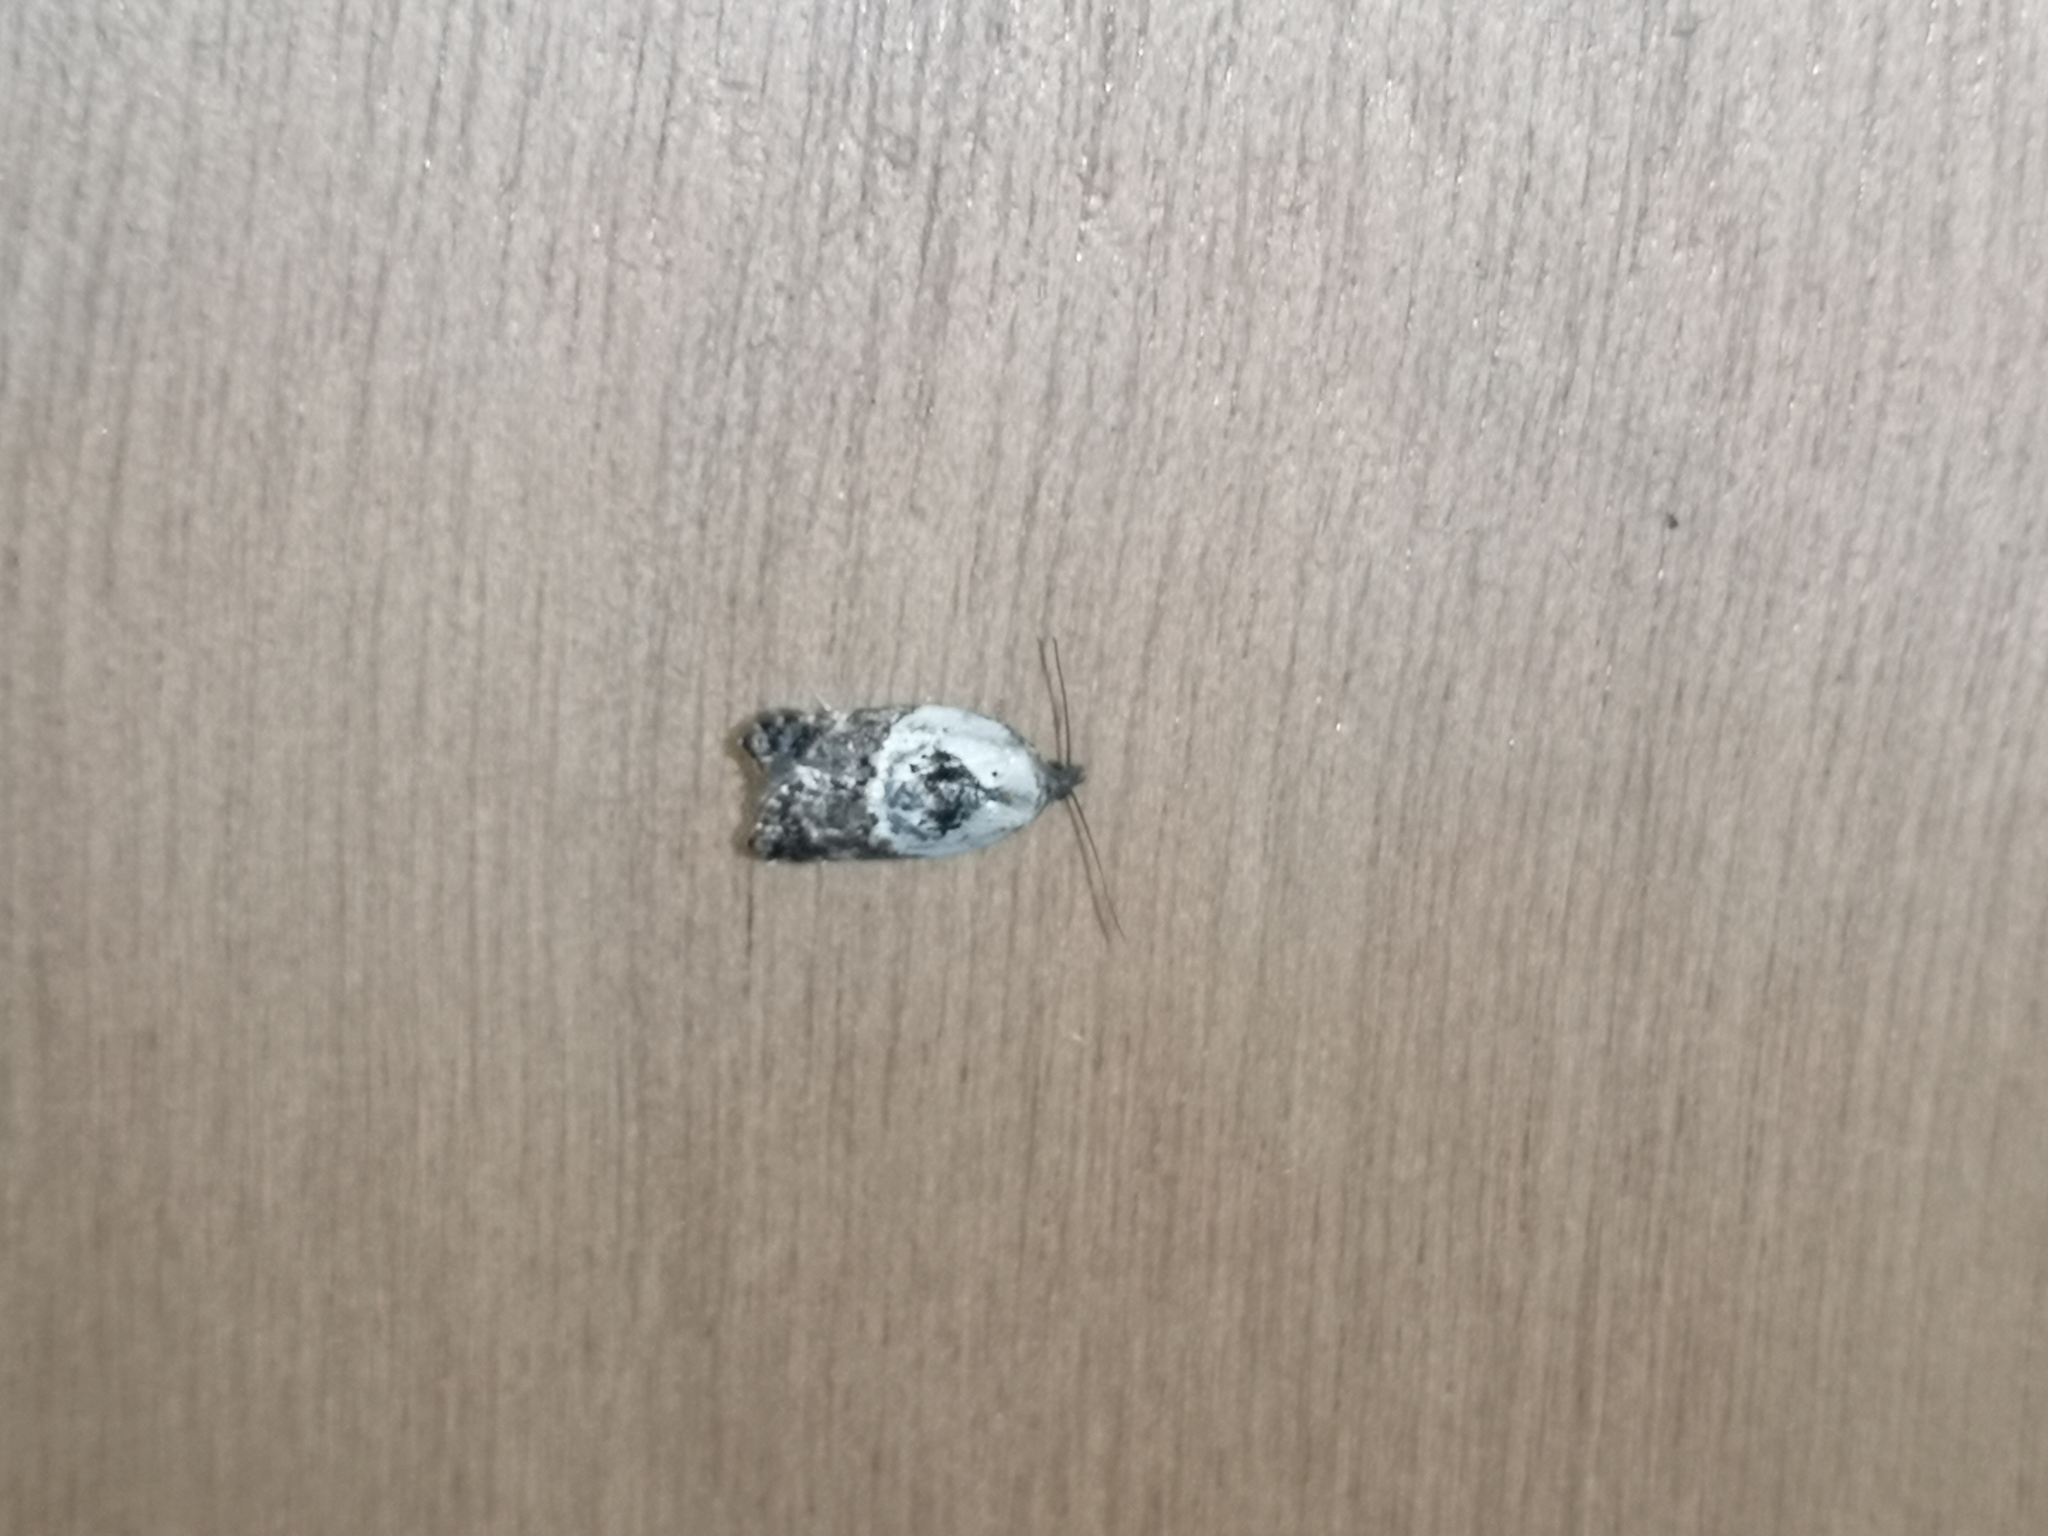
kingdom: Animalia
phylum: Arthropoda
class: Insecta
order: Lepidoptera
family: Tortricidae
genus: Acleris
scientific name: Acleris variegana
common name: Garden rose tortrix
